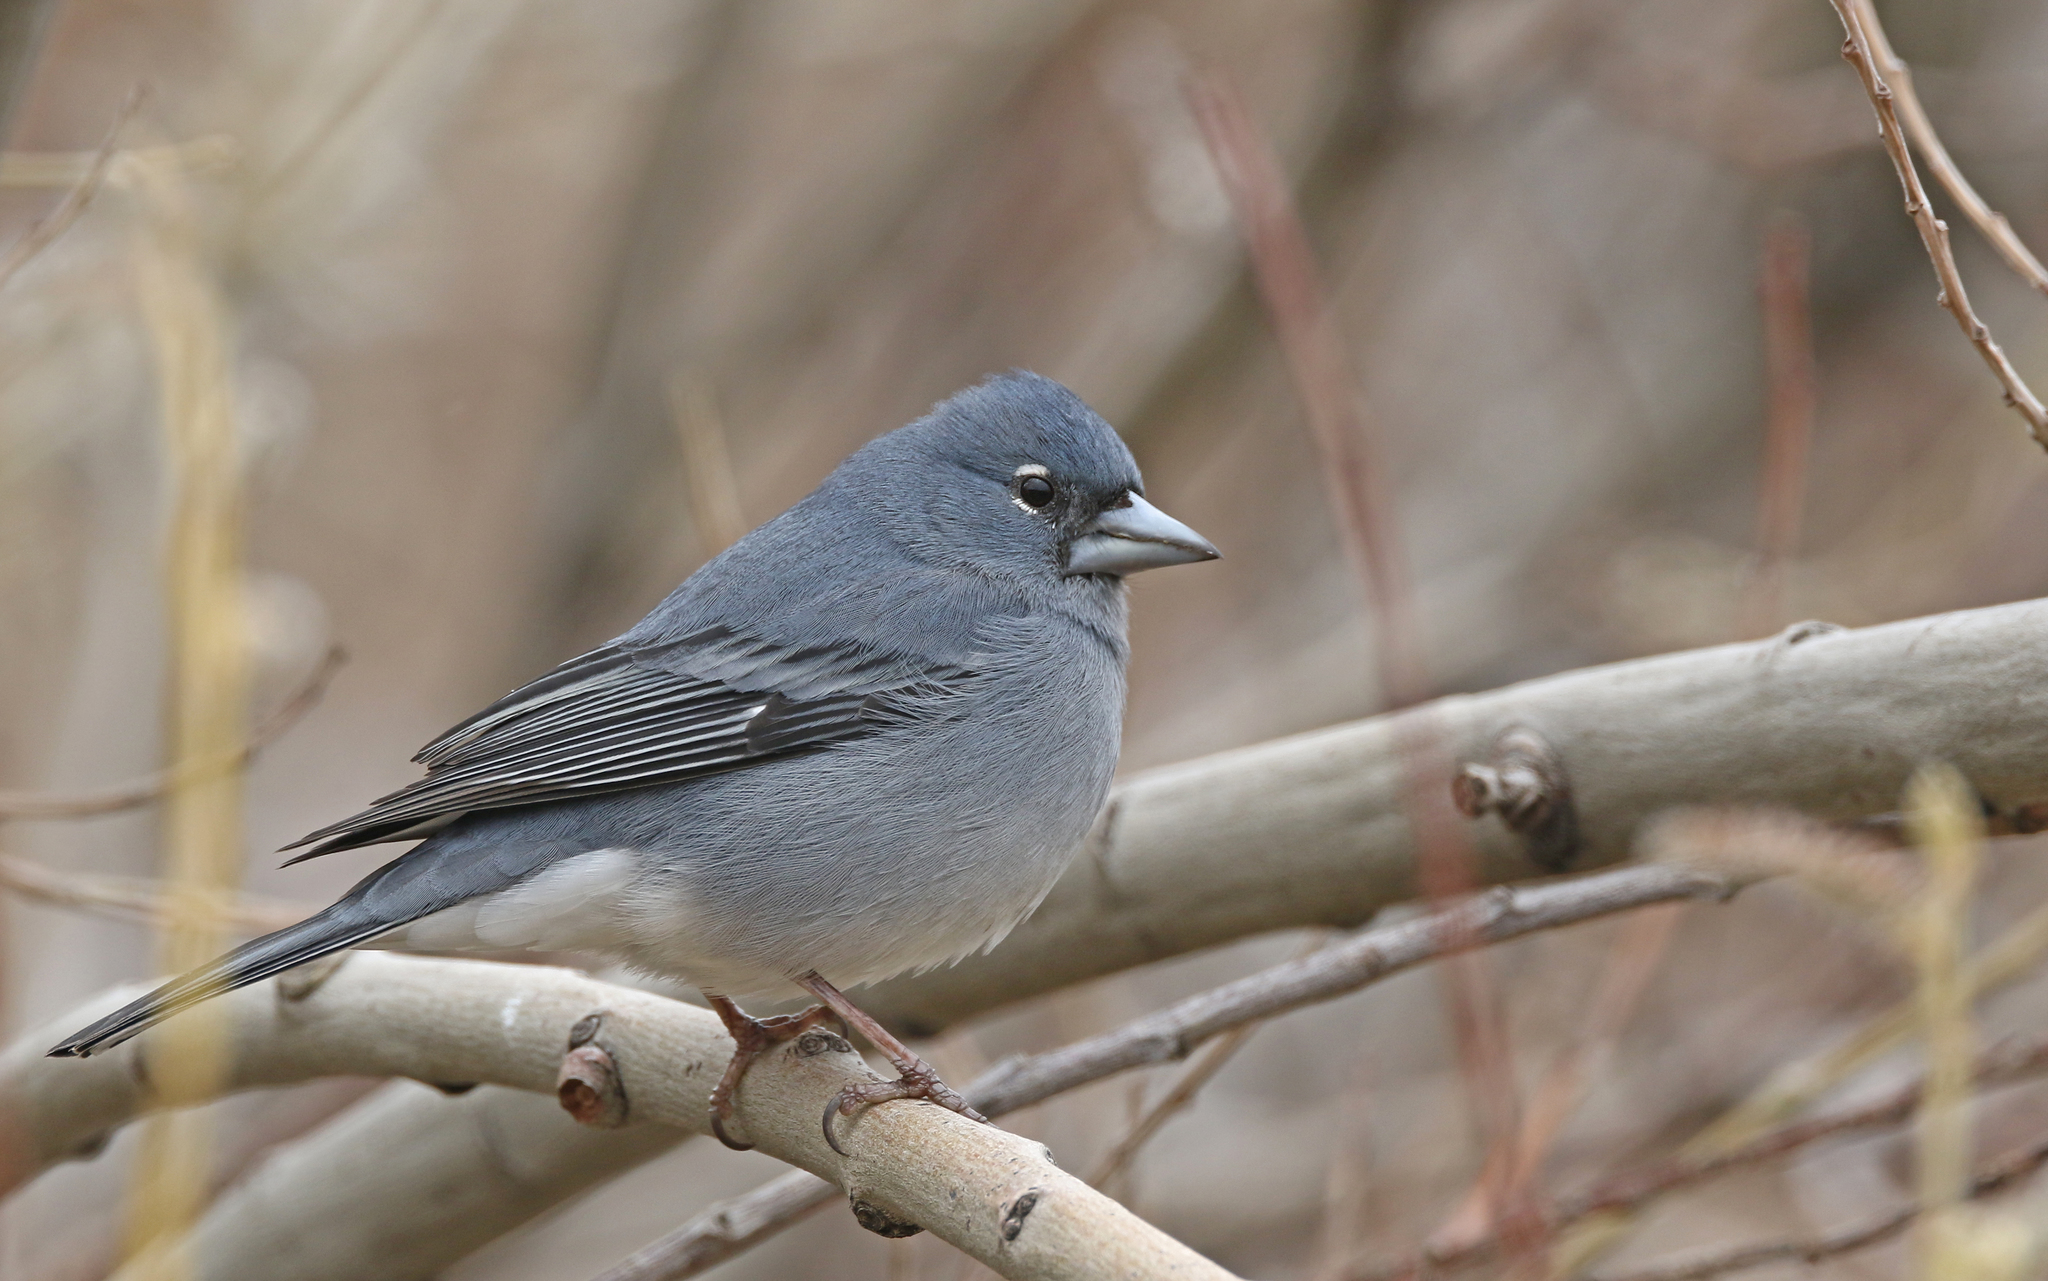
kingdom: Animalia
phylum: Chordata
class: Aves
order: Passeriformes
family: Fringillidae
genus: Fringilla
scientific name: Fringilla teydea
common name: Blue chaffinch
